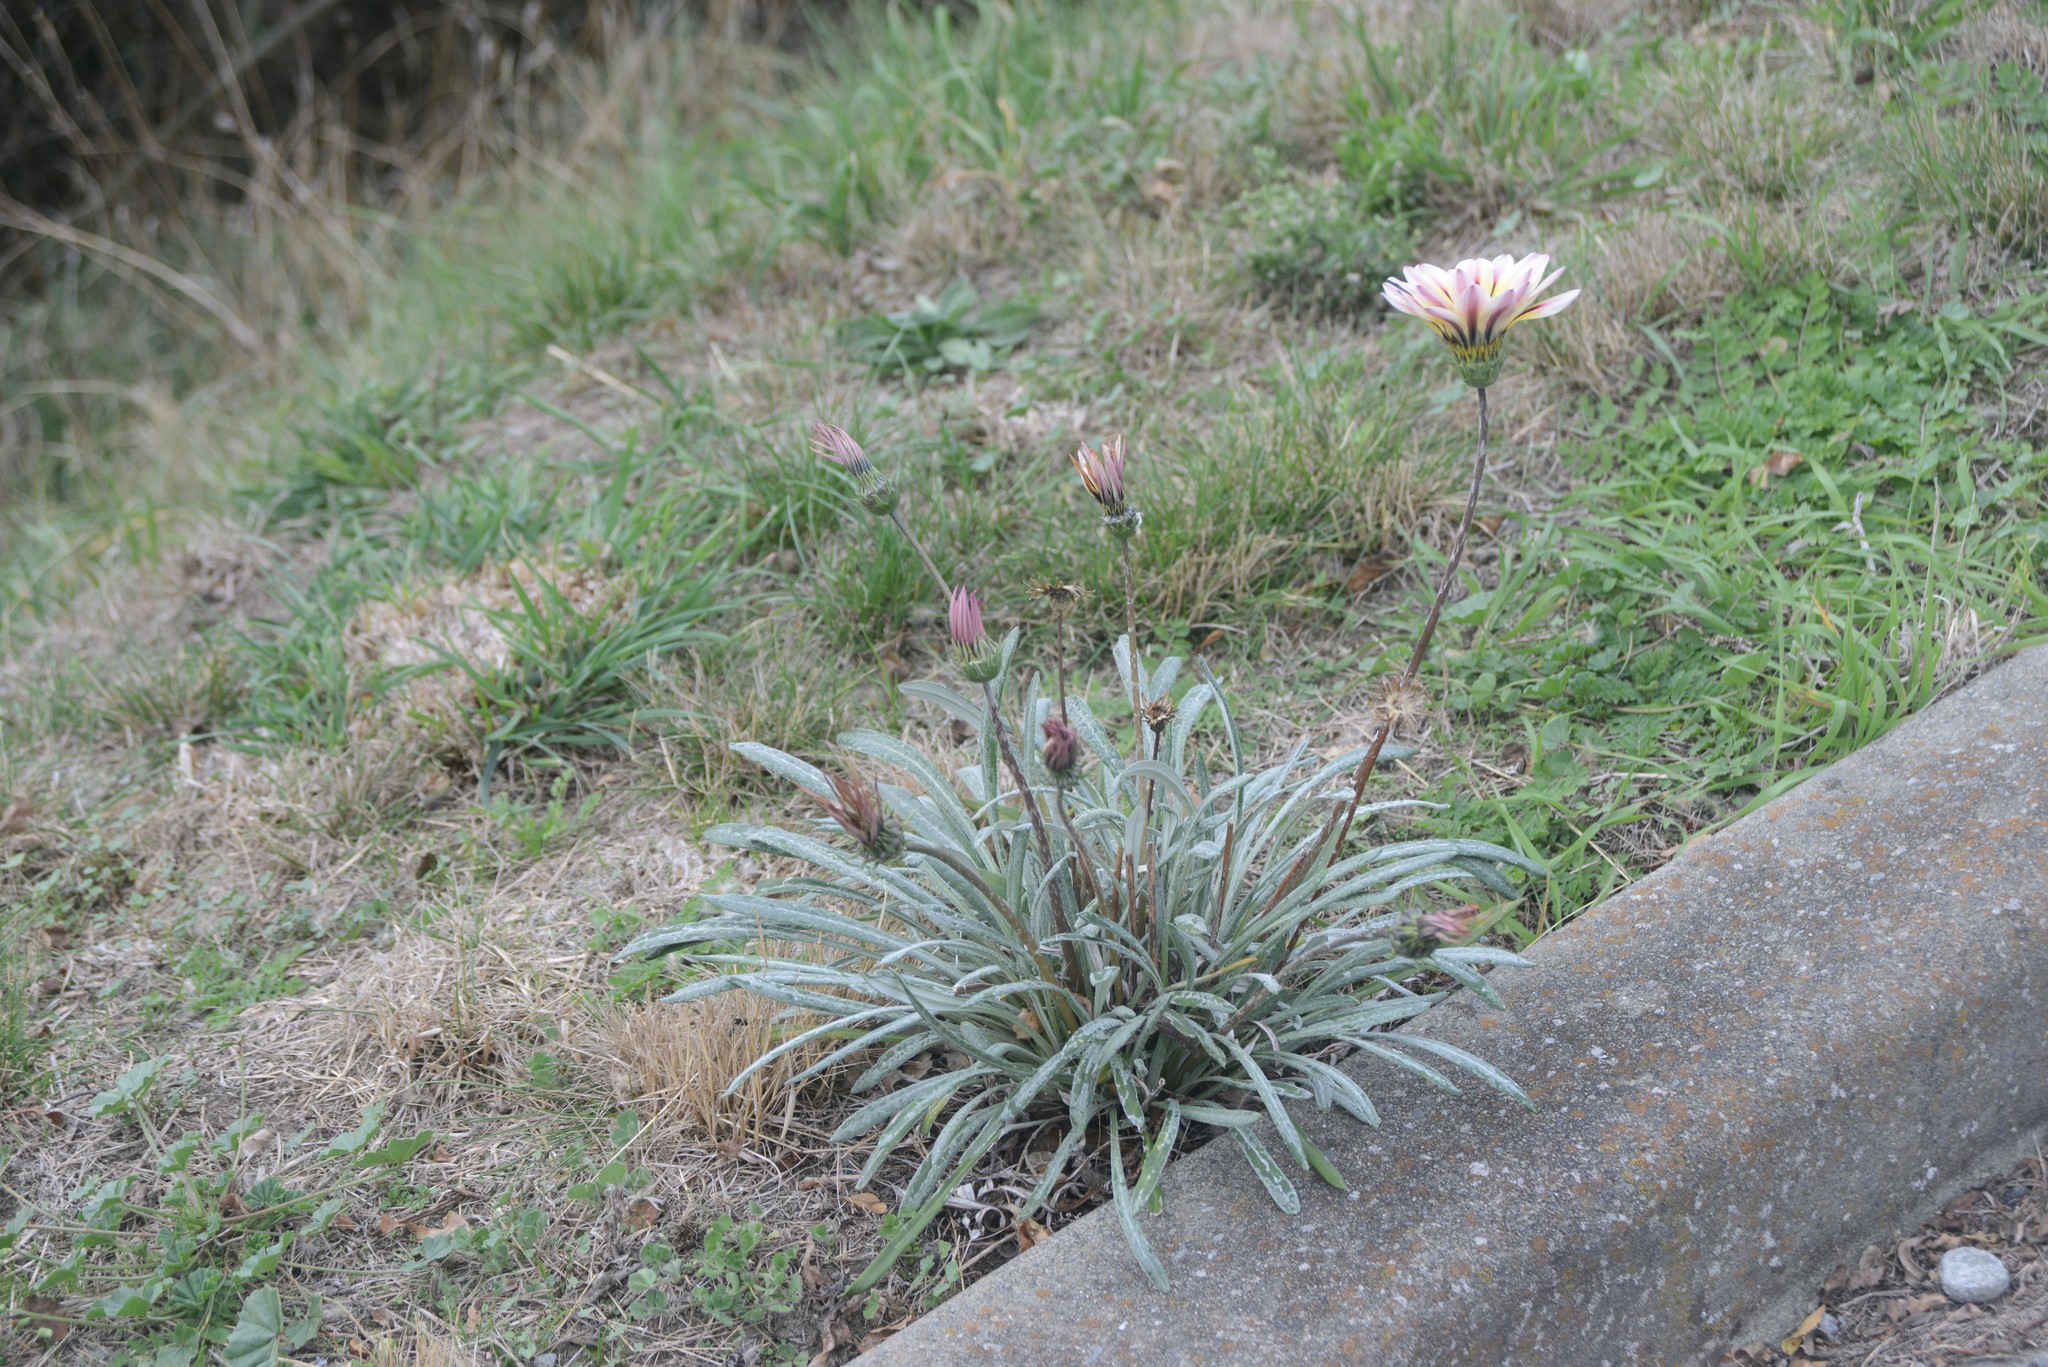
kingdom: Plantae
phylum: Tracheophyta
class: Magnoliopsida
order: Asterales
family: Asteraceae
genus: Gazania
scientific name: Gazania splendens
